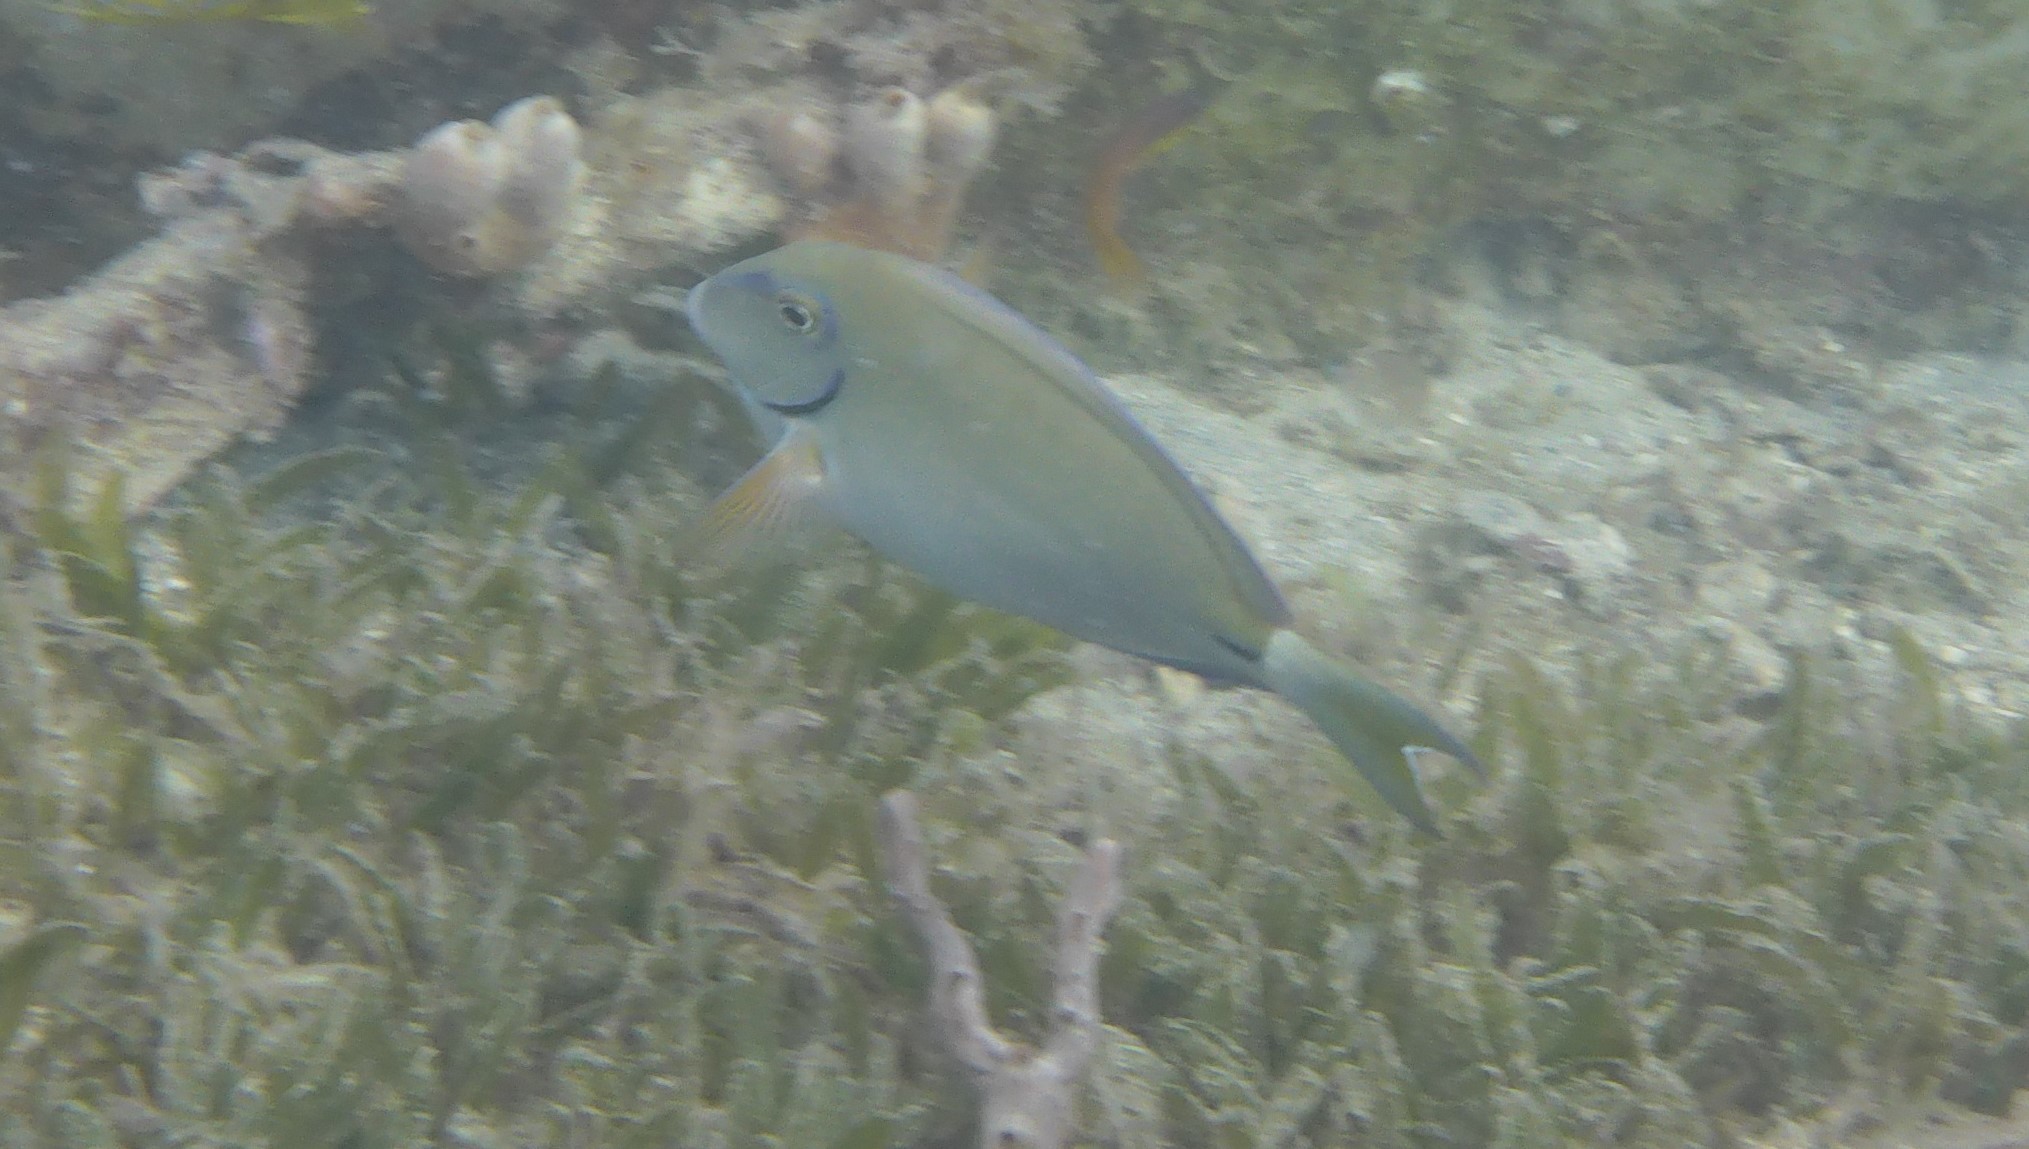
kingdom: Animalia
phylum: Chordata
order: Perciformes
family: Acanthuridae
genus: Acanthurus
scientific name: Acanthurus bahianus
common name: Ocean surgeon
